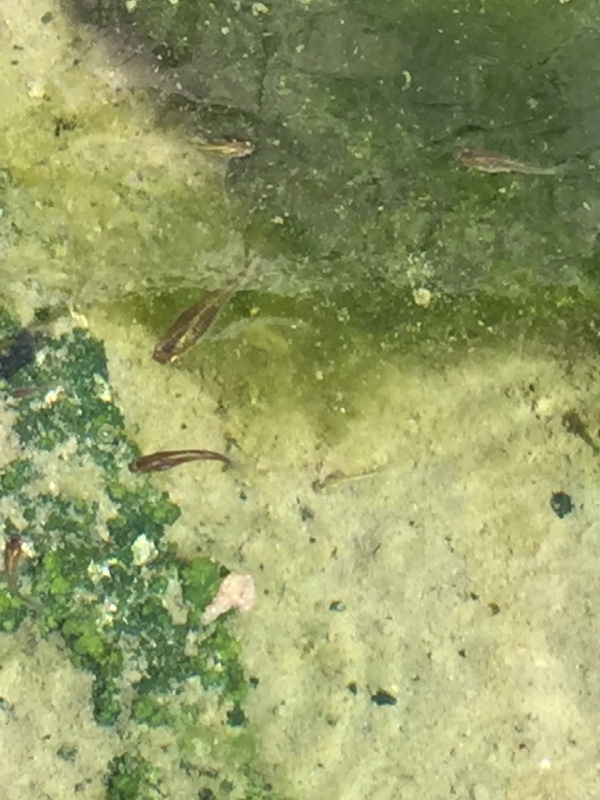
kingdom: Animalia
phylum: Chordata
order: Cyprinodontiformes
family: Poeciliidae
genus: Gambusia
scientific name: Gambusia holbrooki
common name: Eastern mosquitofish
